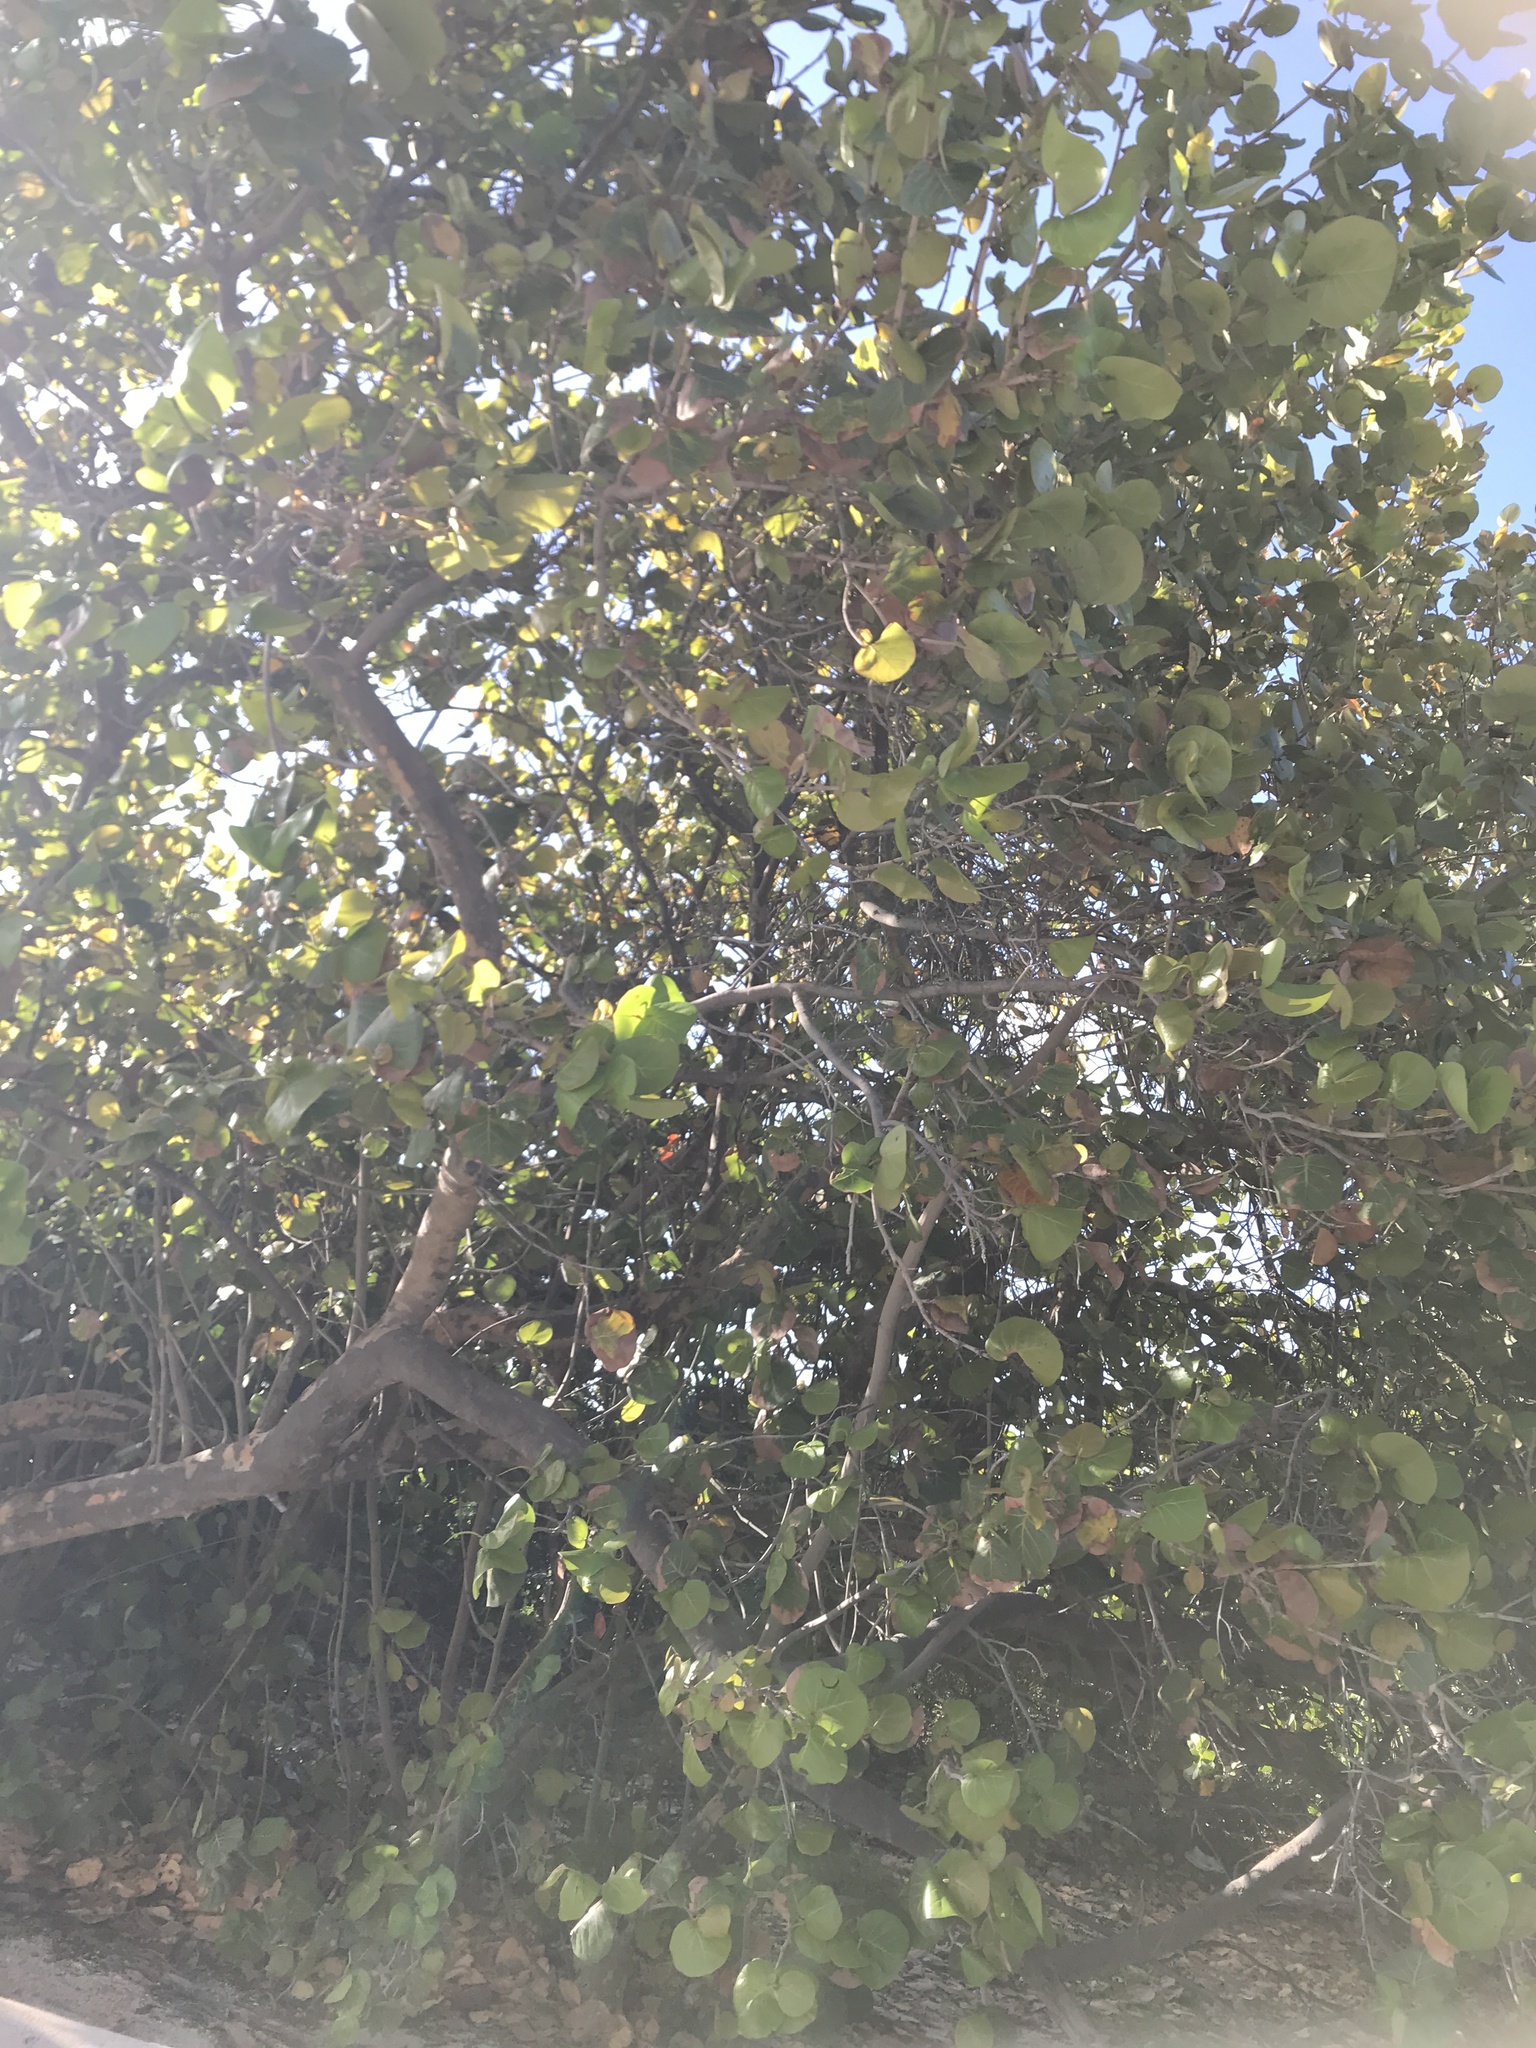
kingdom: Plantae
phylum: Tracheophyta
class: Magnoliopsida
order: Caryophyllales
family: Polygonaceae
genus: Coccoloba
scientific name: Coccoloba uvifera
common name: Seagrape
